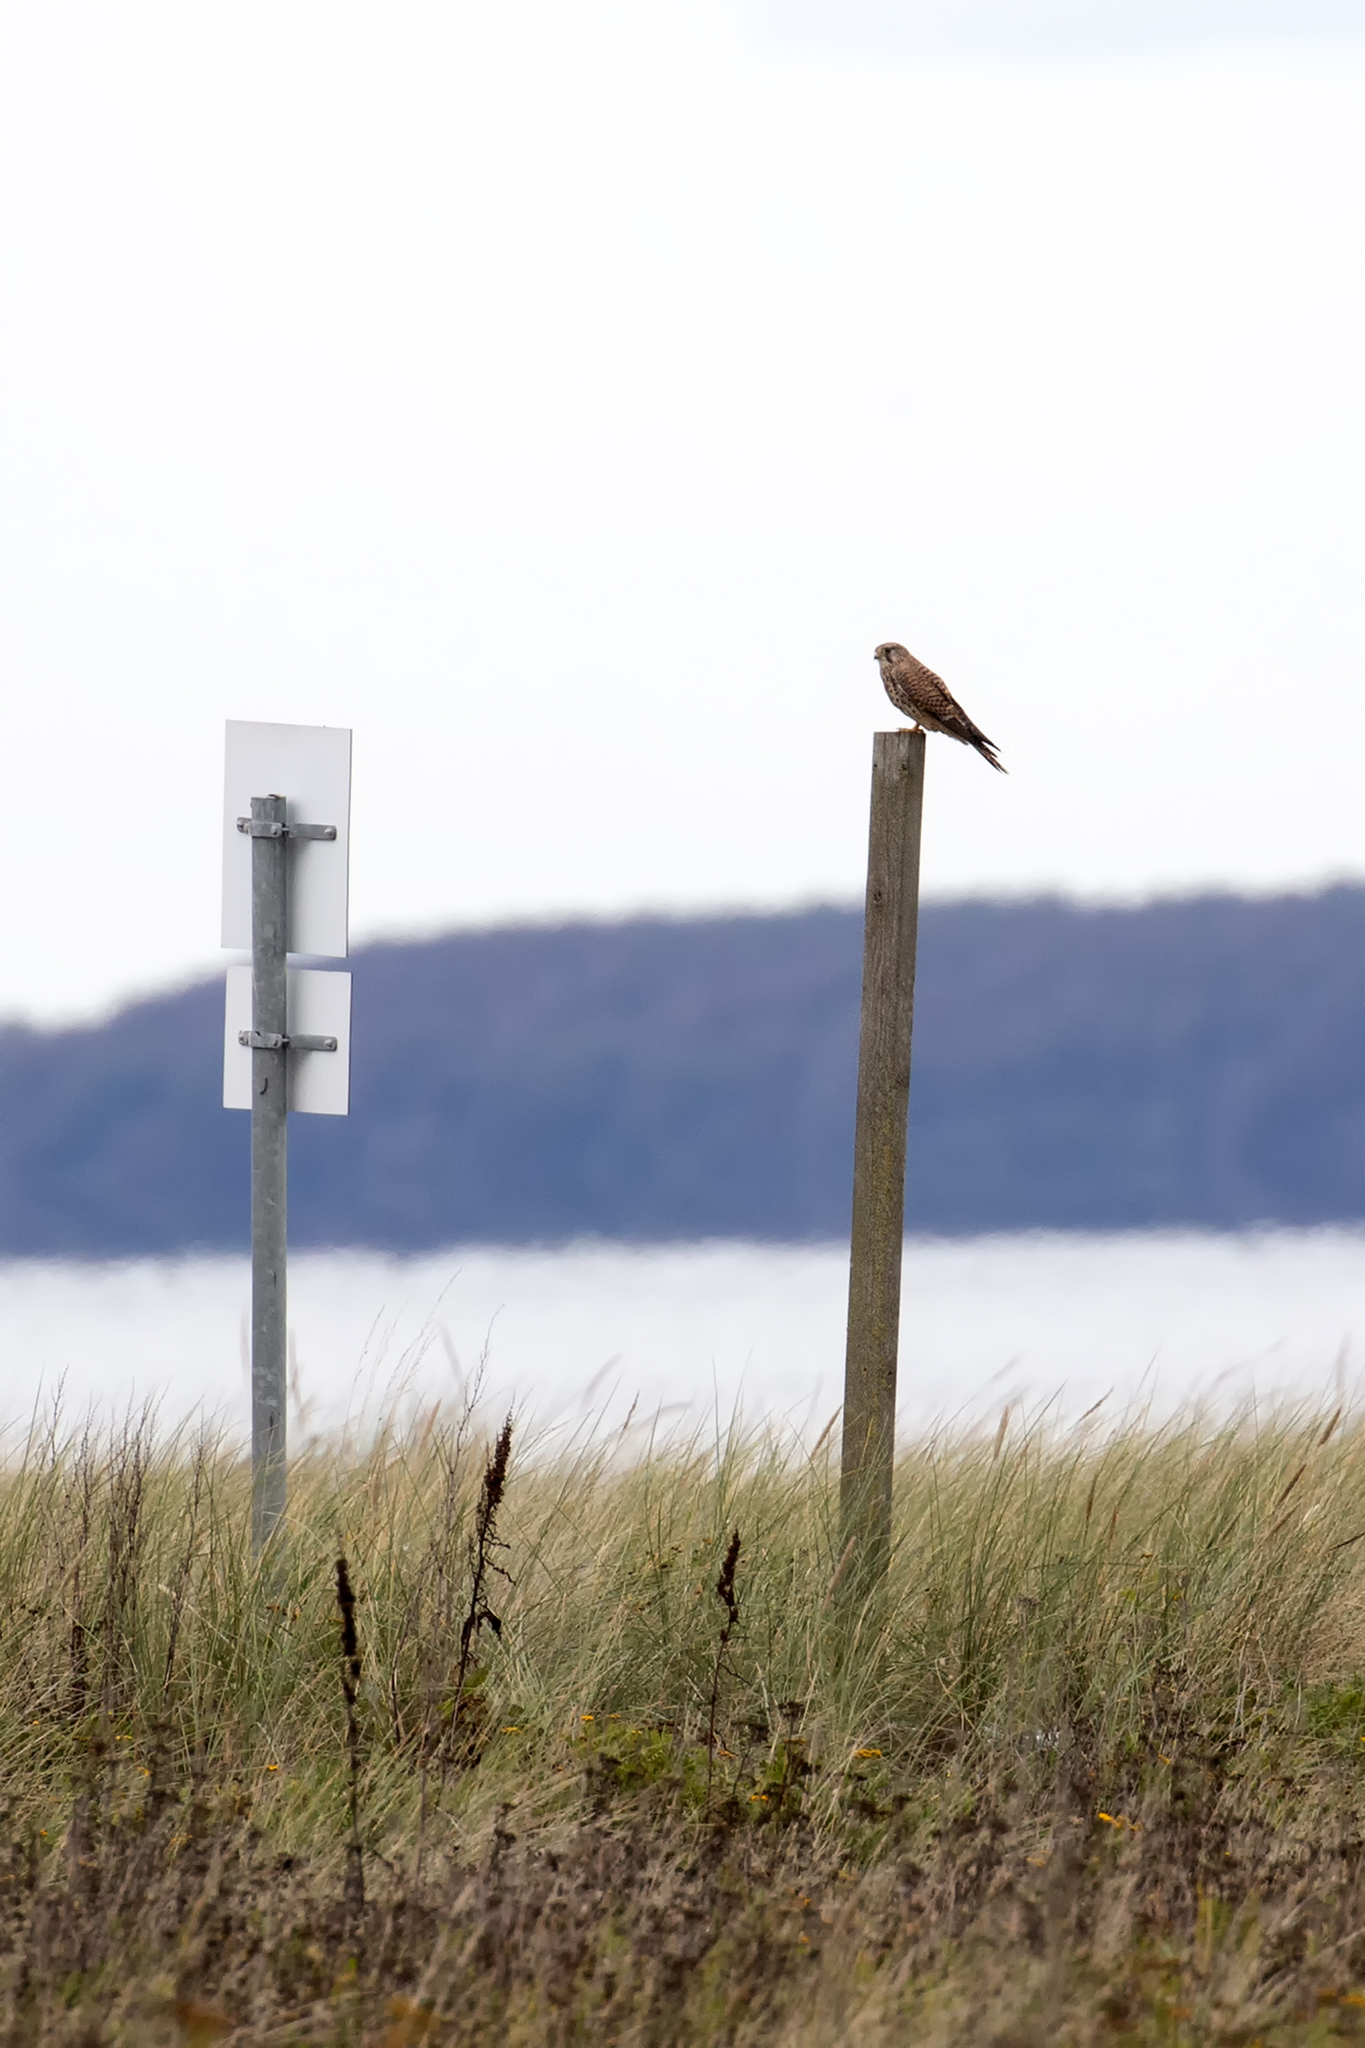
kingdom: Animalia
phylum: Chordata
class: Aves
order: Falconiformes
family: Falconidae
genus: Falco
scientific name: Falco tinnunculus
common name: Common kestrel
